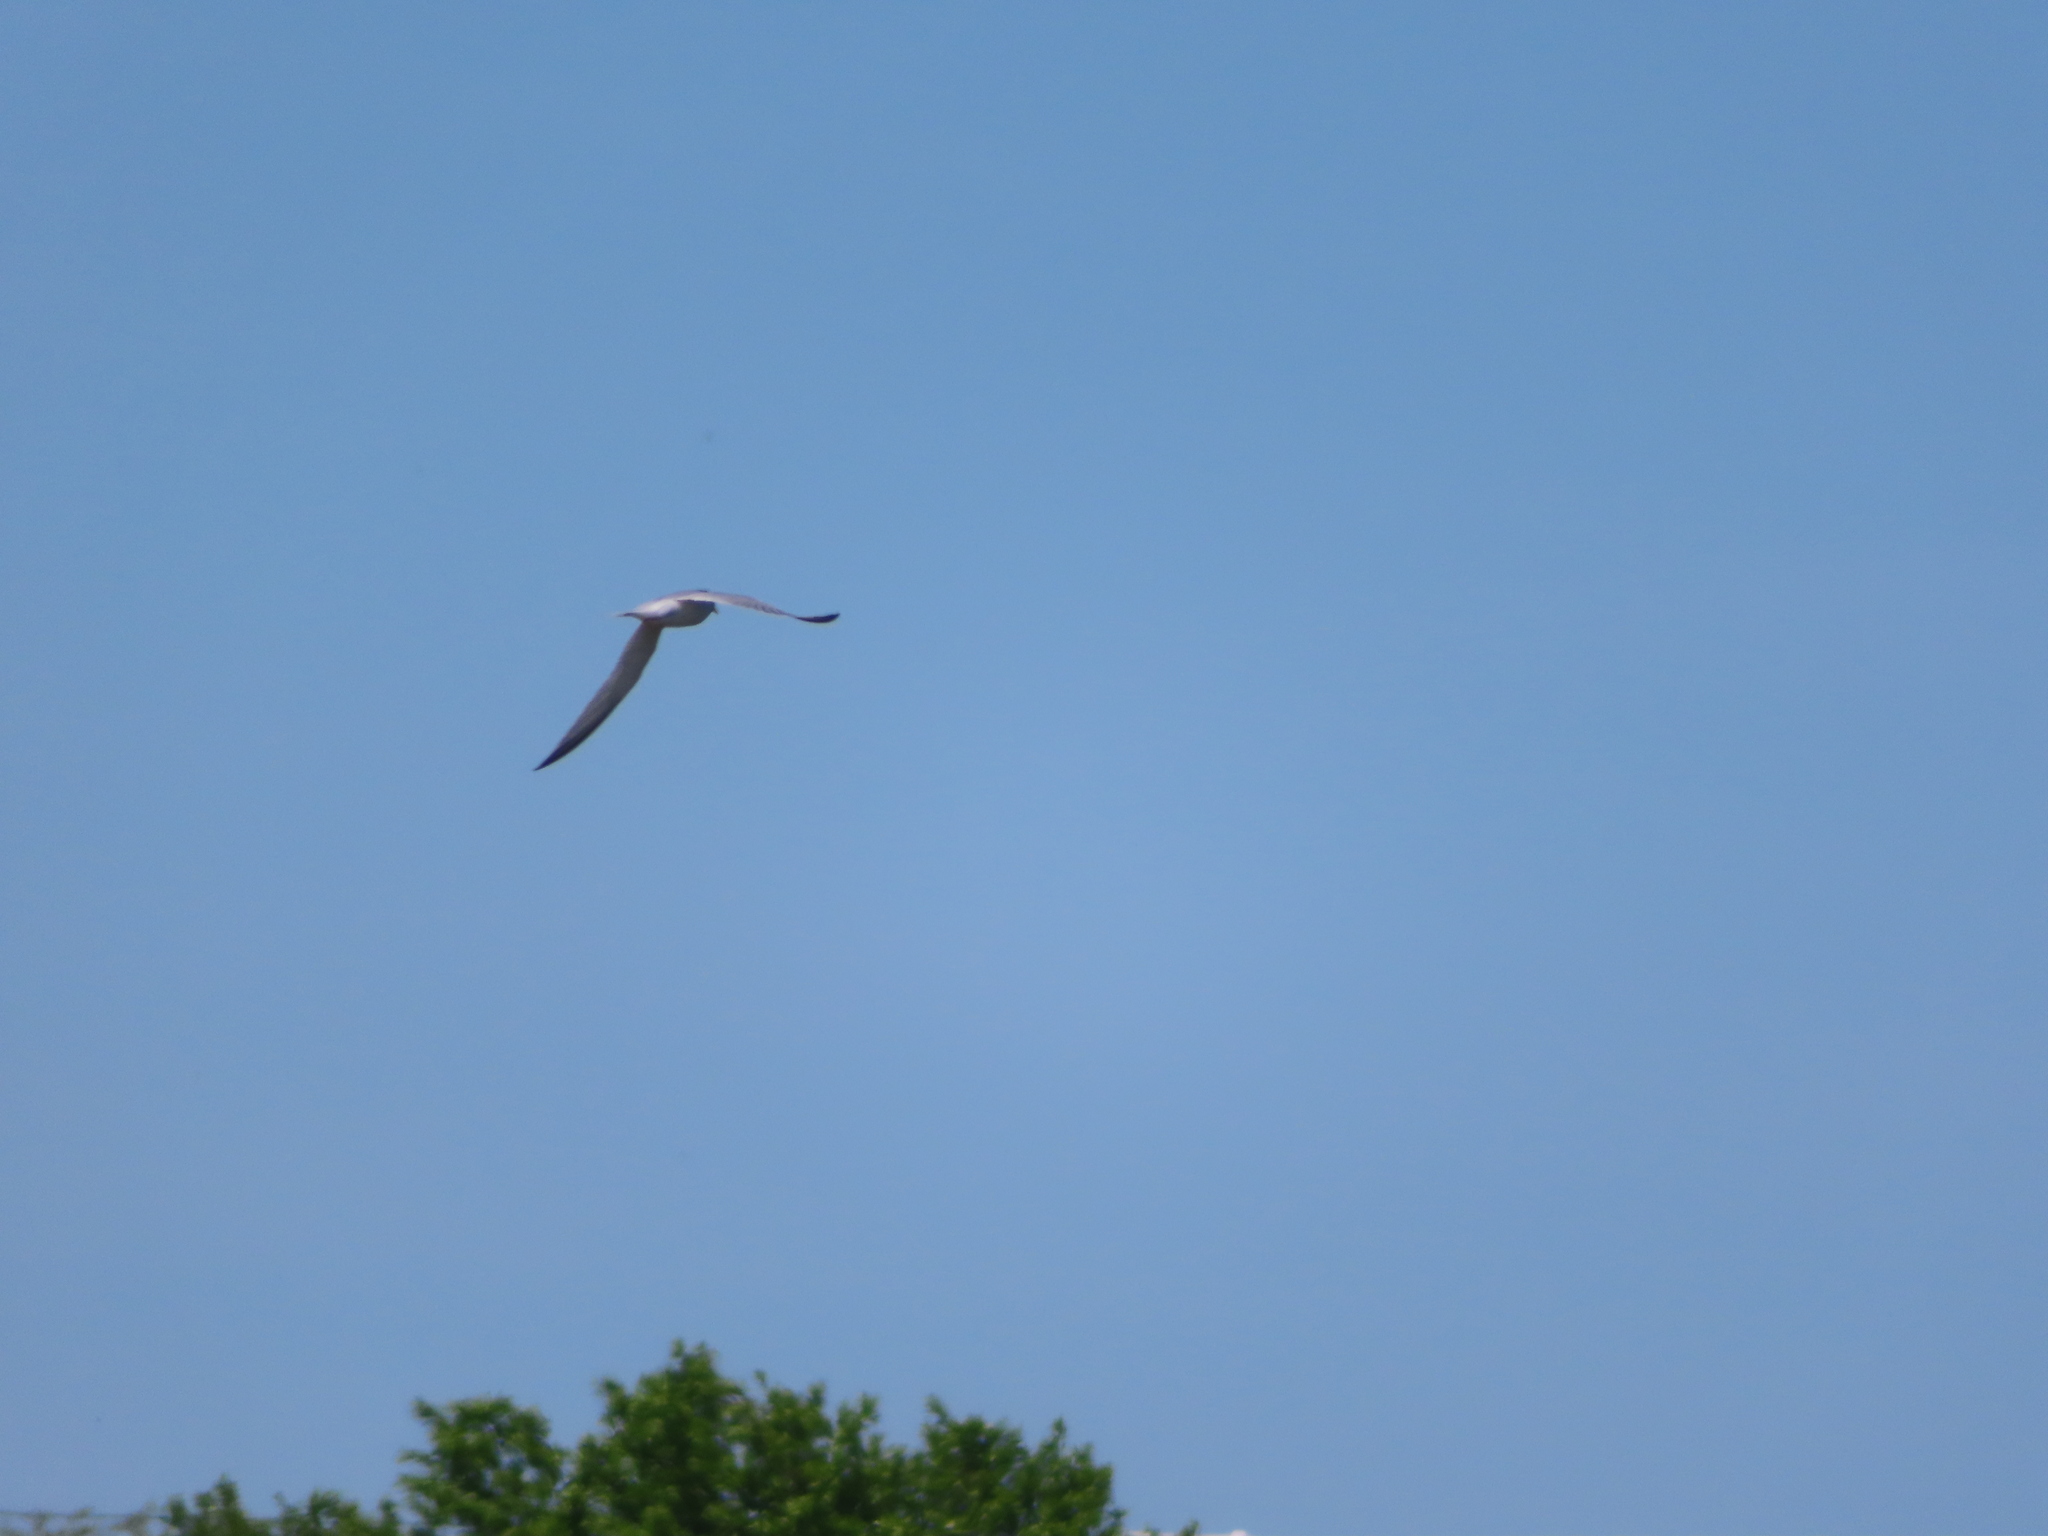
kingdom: Animalia
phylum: Chordata
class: Aves
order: Charadriiformes
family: Laridae
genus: Sternula
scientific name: Sternula antillarum
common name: Least tern
